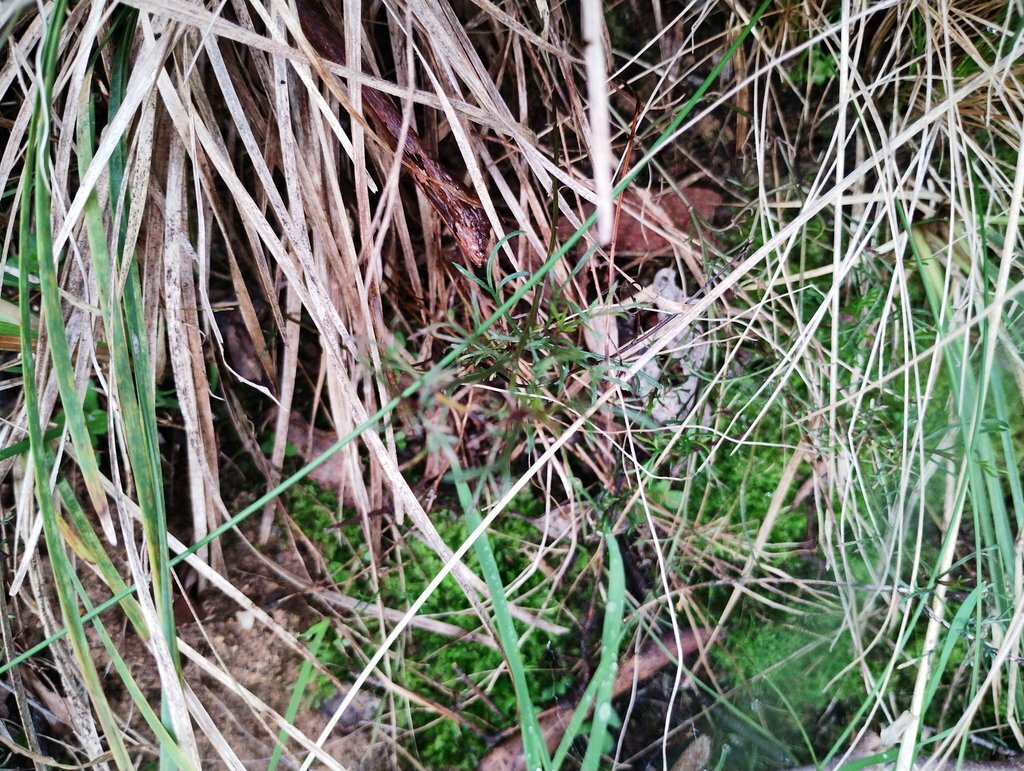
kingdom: Plantae
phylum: Tracheophyta
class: Magnoliopsida
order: Asterales
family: Asteraceae
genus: Brachyscome
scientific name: Brachyscome multifida
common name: Cut-leaf daisy
